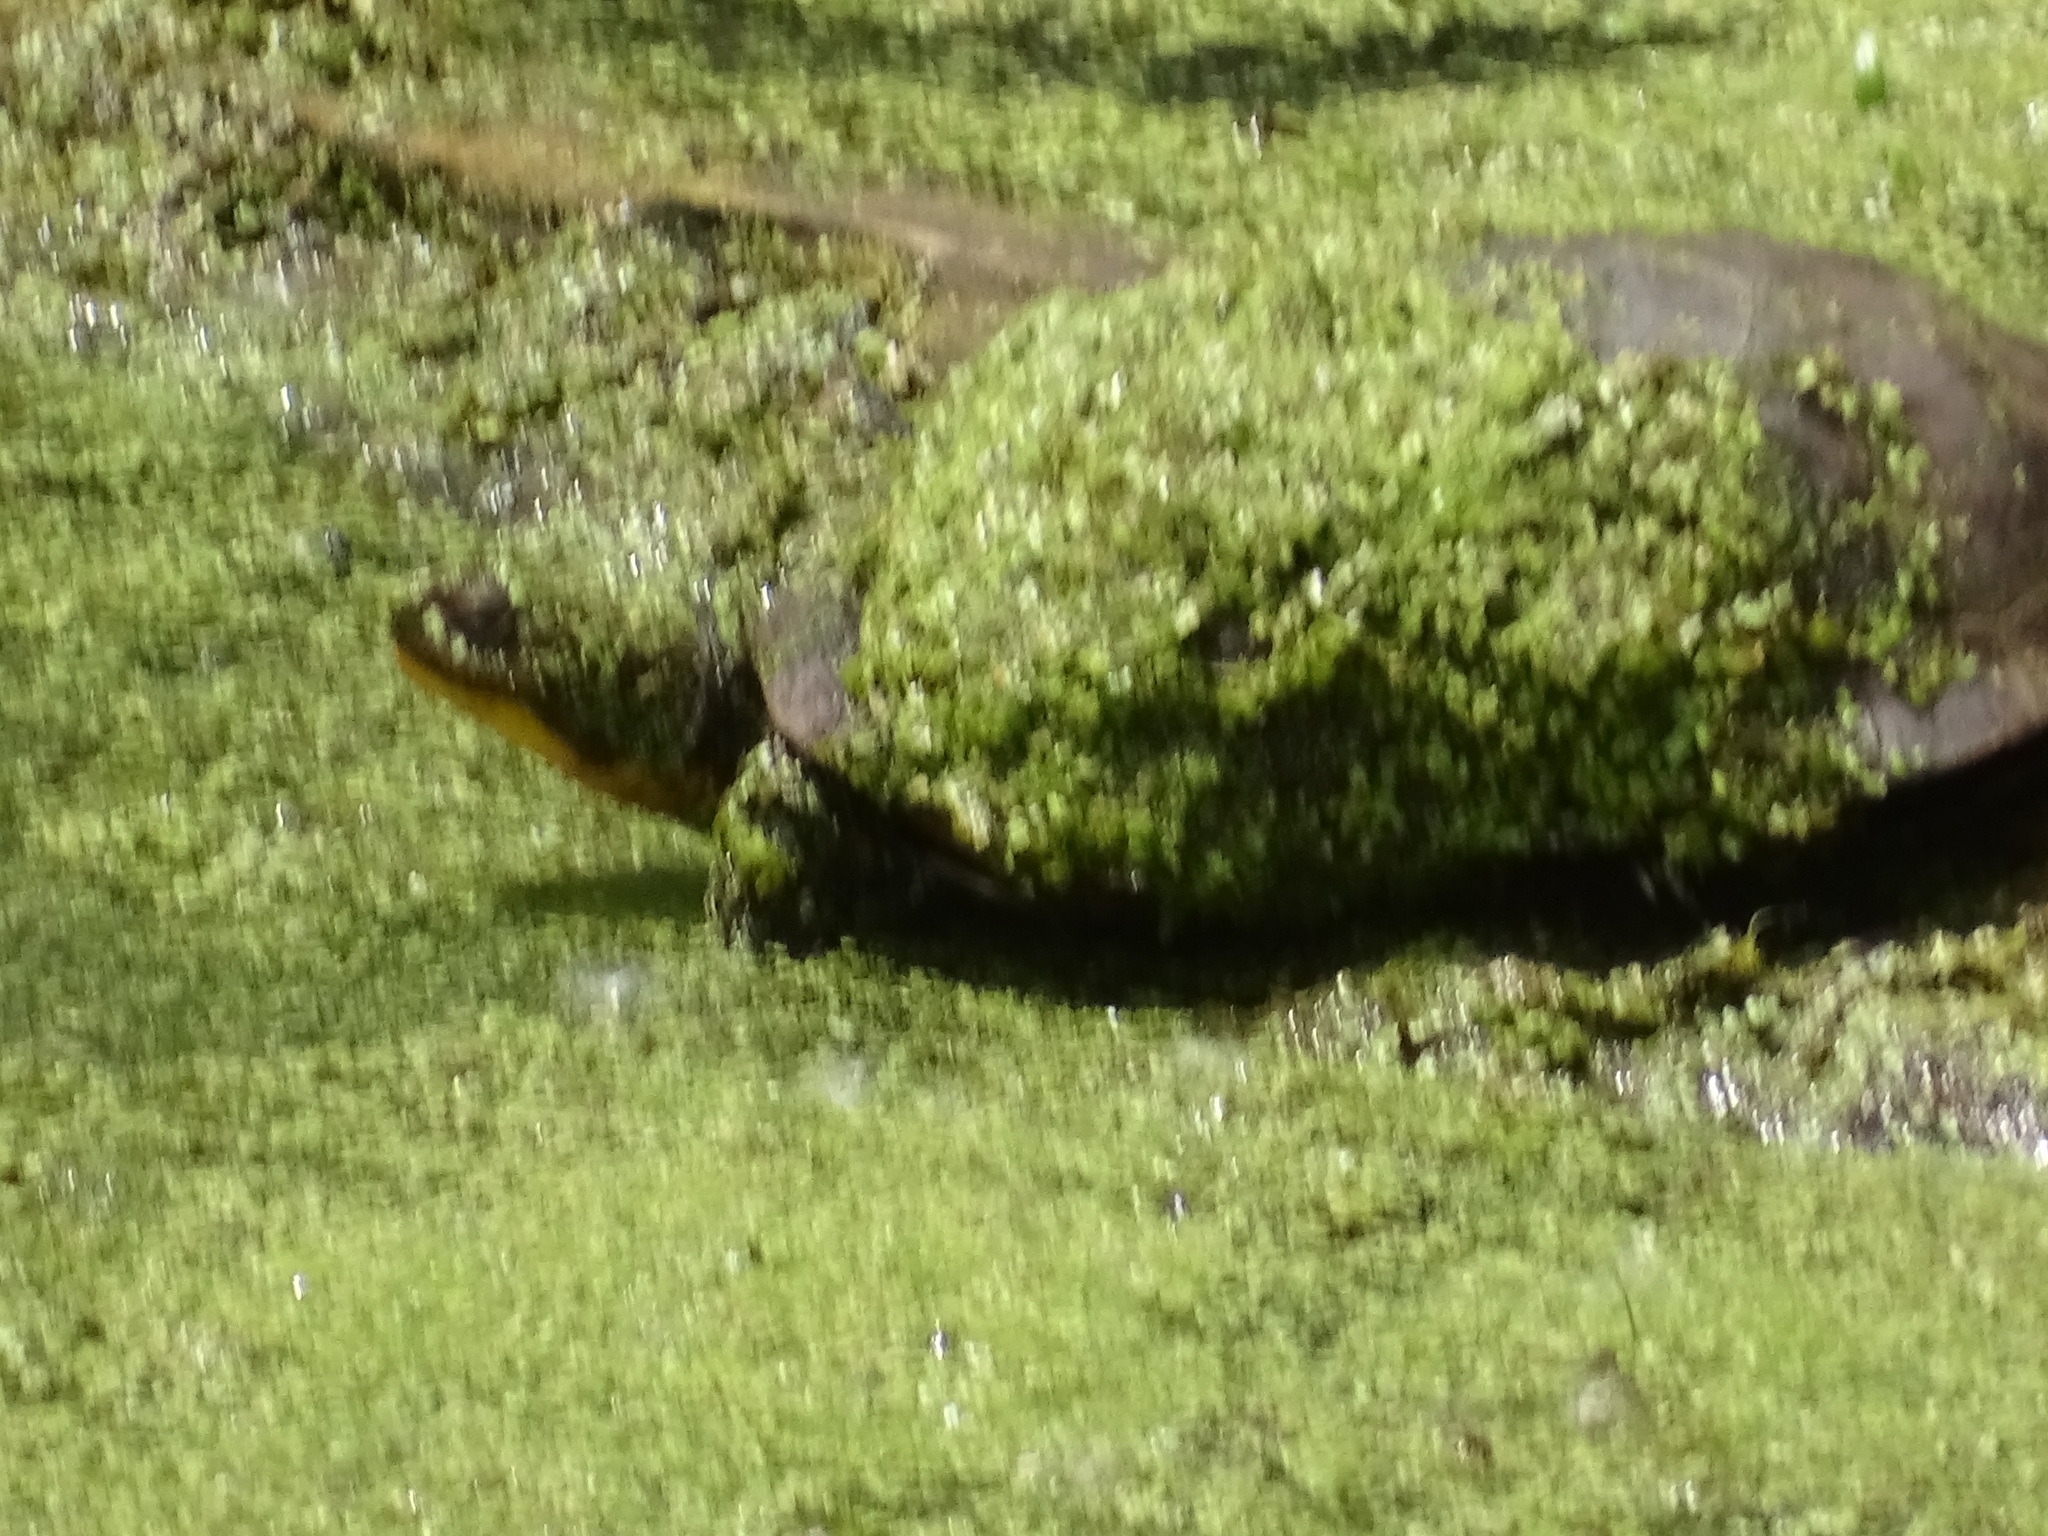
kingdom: Animalia
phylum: Chordata
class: Testudines
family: Emydidae
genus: Emys
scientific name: Emys blandingii
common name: Blanding's turtle
